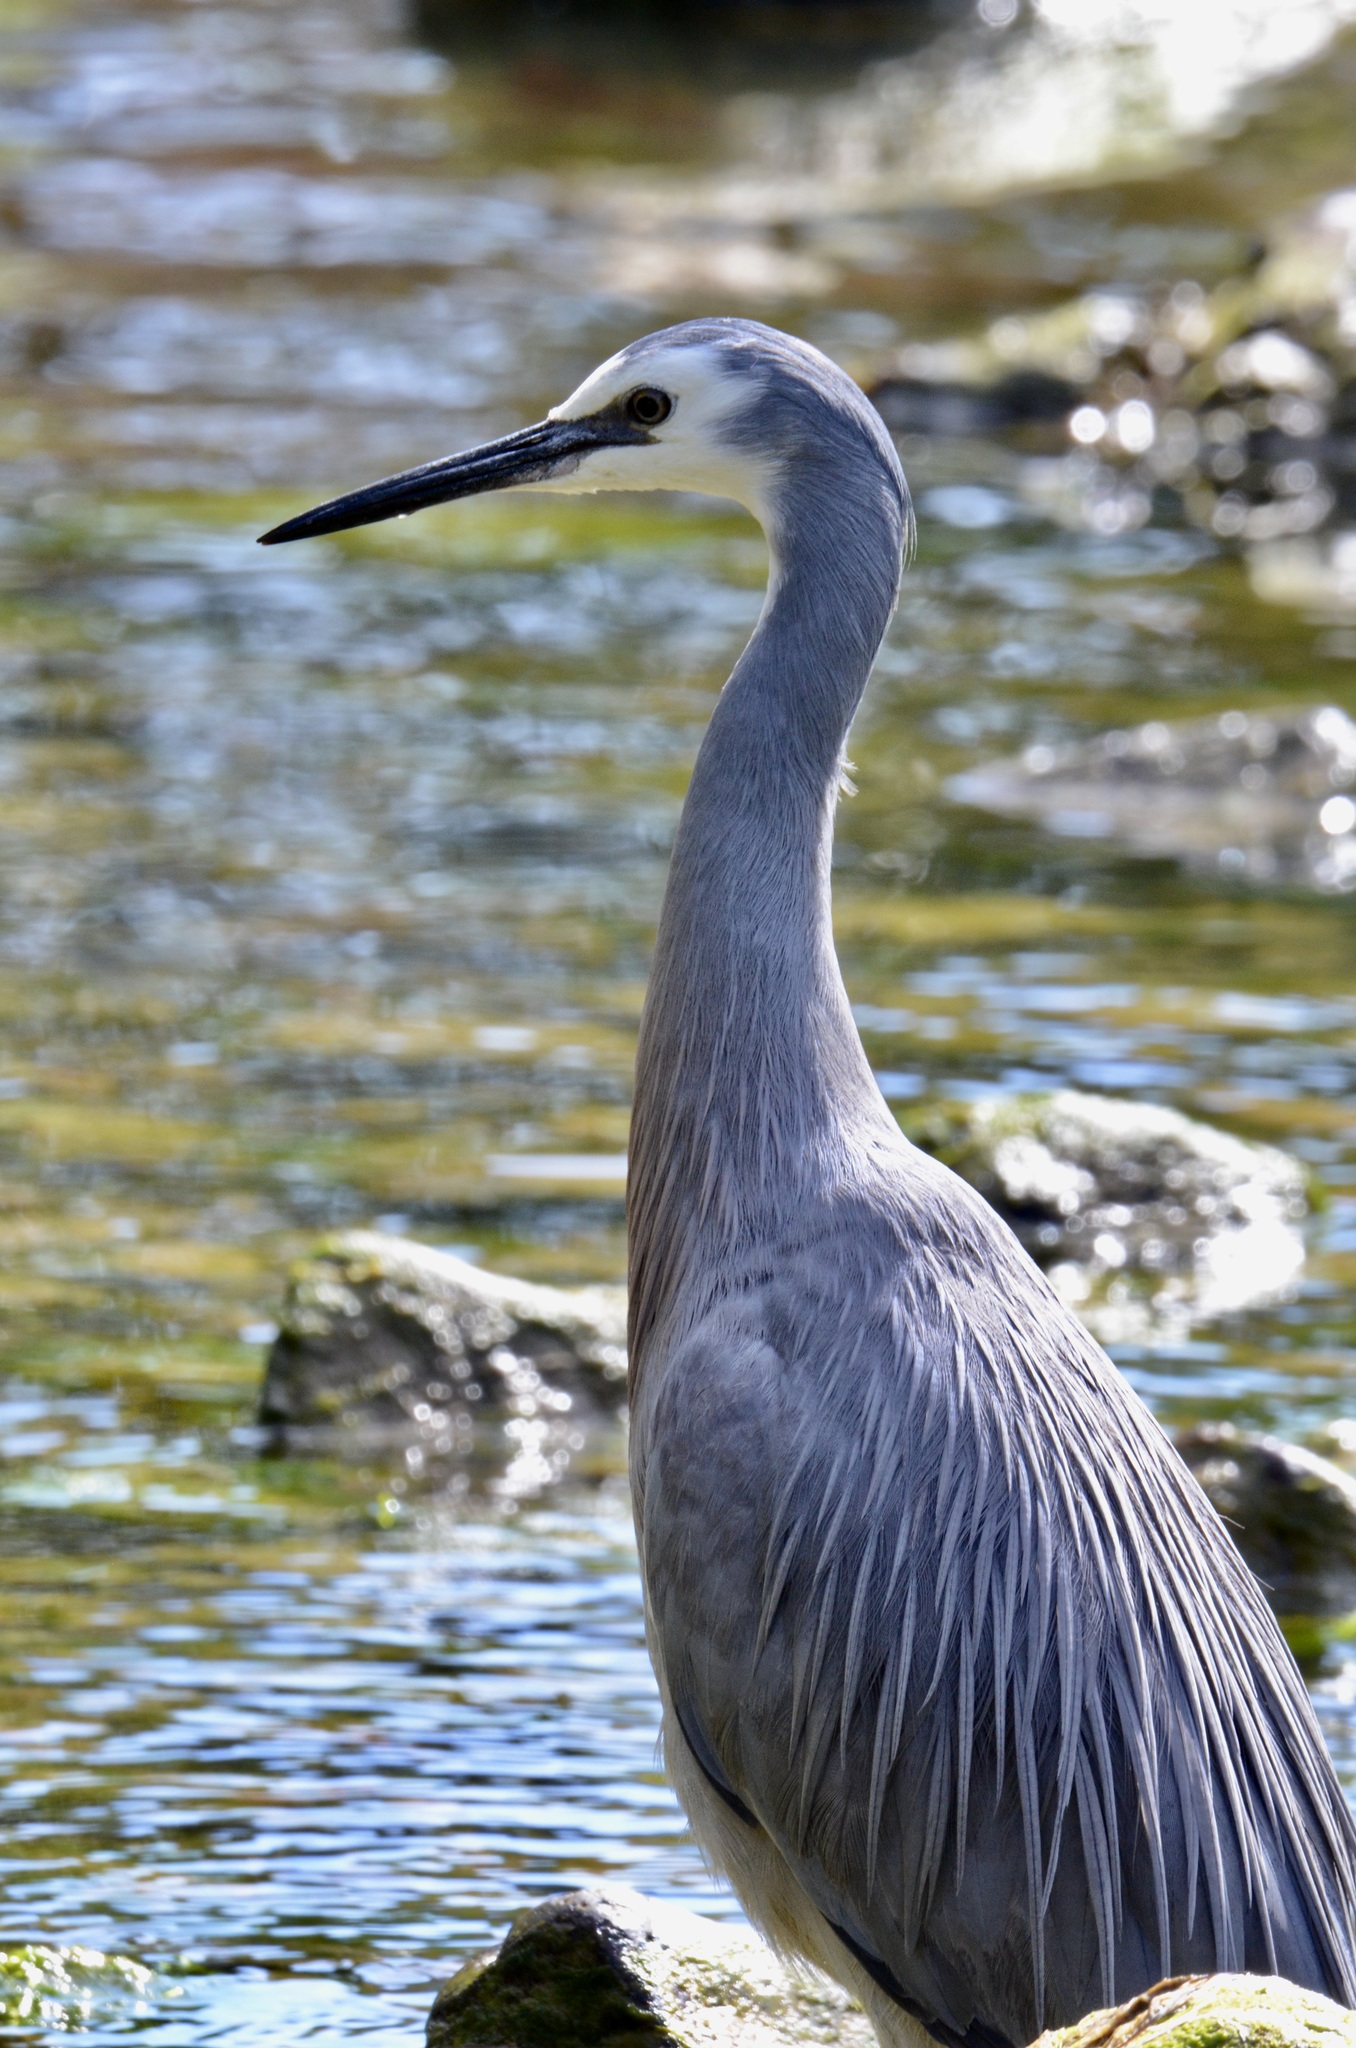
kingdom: Animalia
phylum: Chordata
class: Aves
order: Pelecaniformes
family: Ardeidae
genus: Egretta
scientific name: Egretta novaehollandiae
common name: White-faced heron
